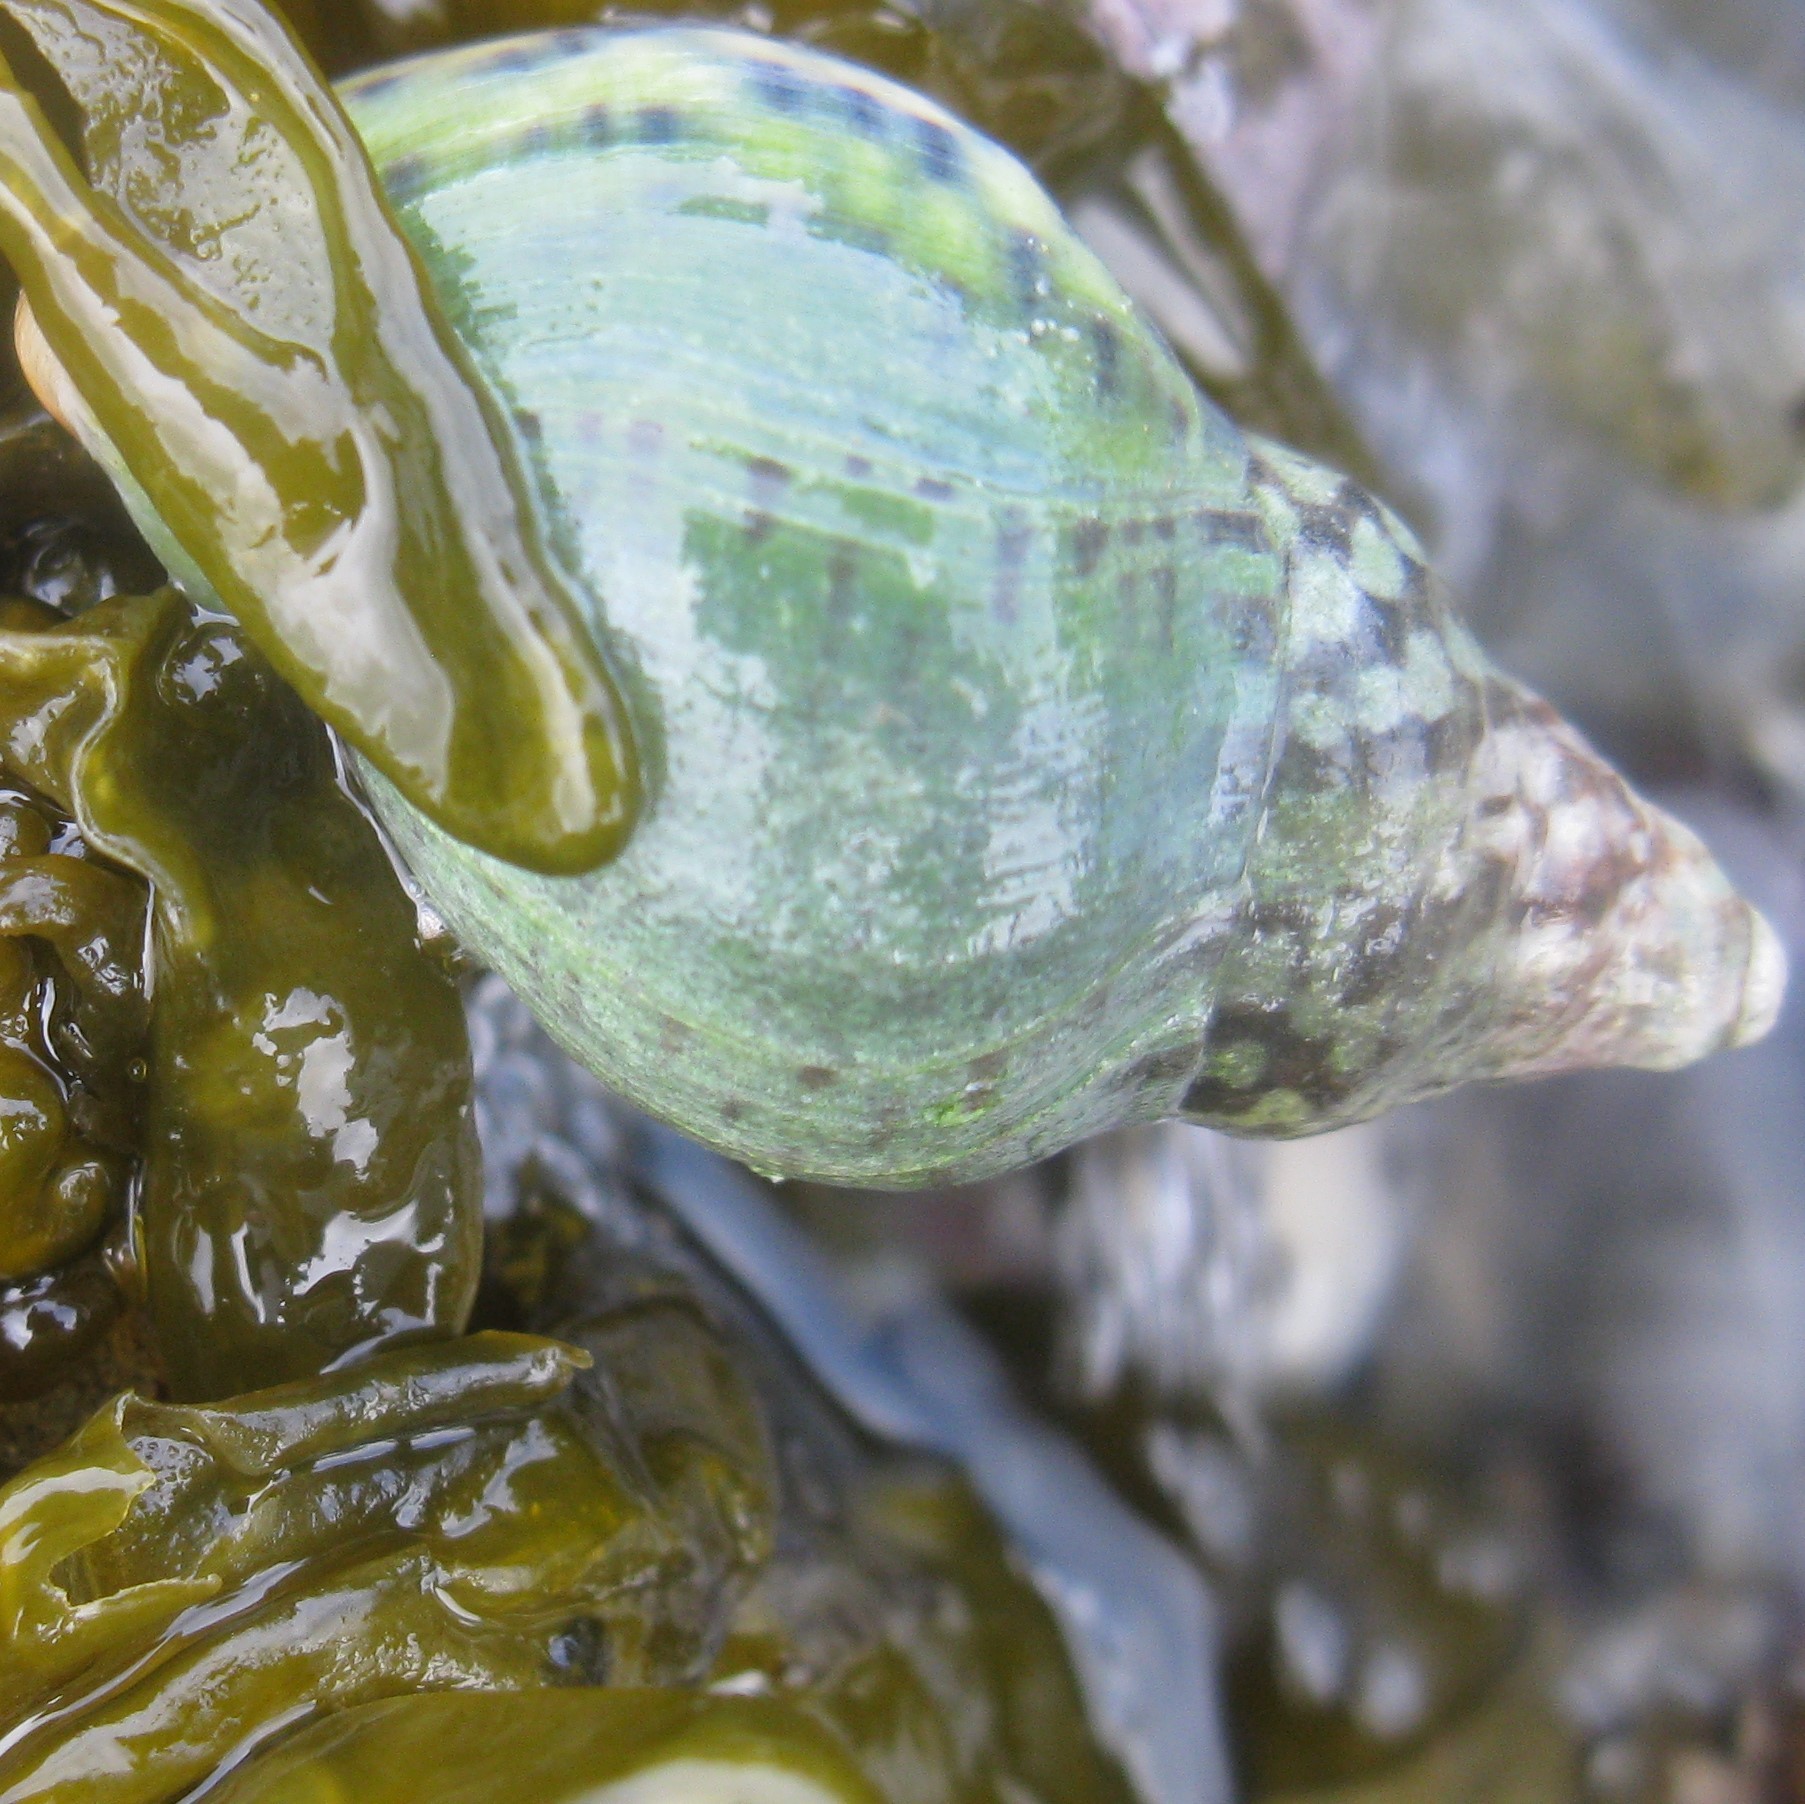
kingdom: Animalia
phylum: Mollusca
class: Gastropoda
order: Neogastropoda
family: Cominellidae
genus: Cominella
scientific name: Cominella maculosa
